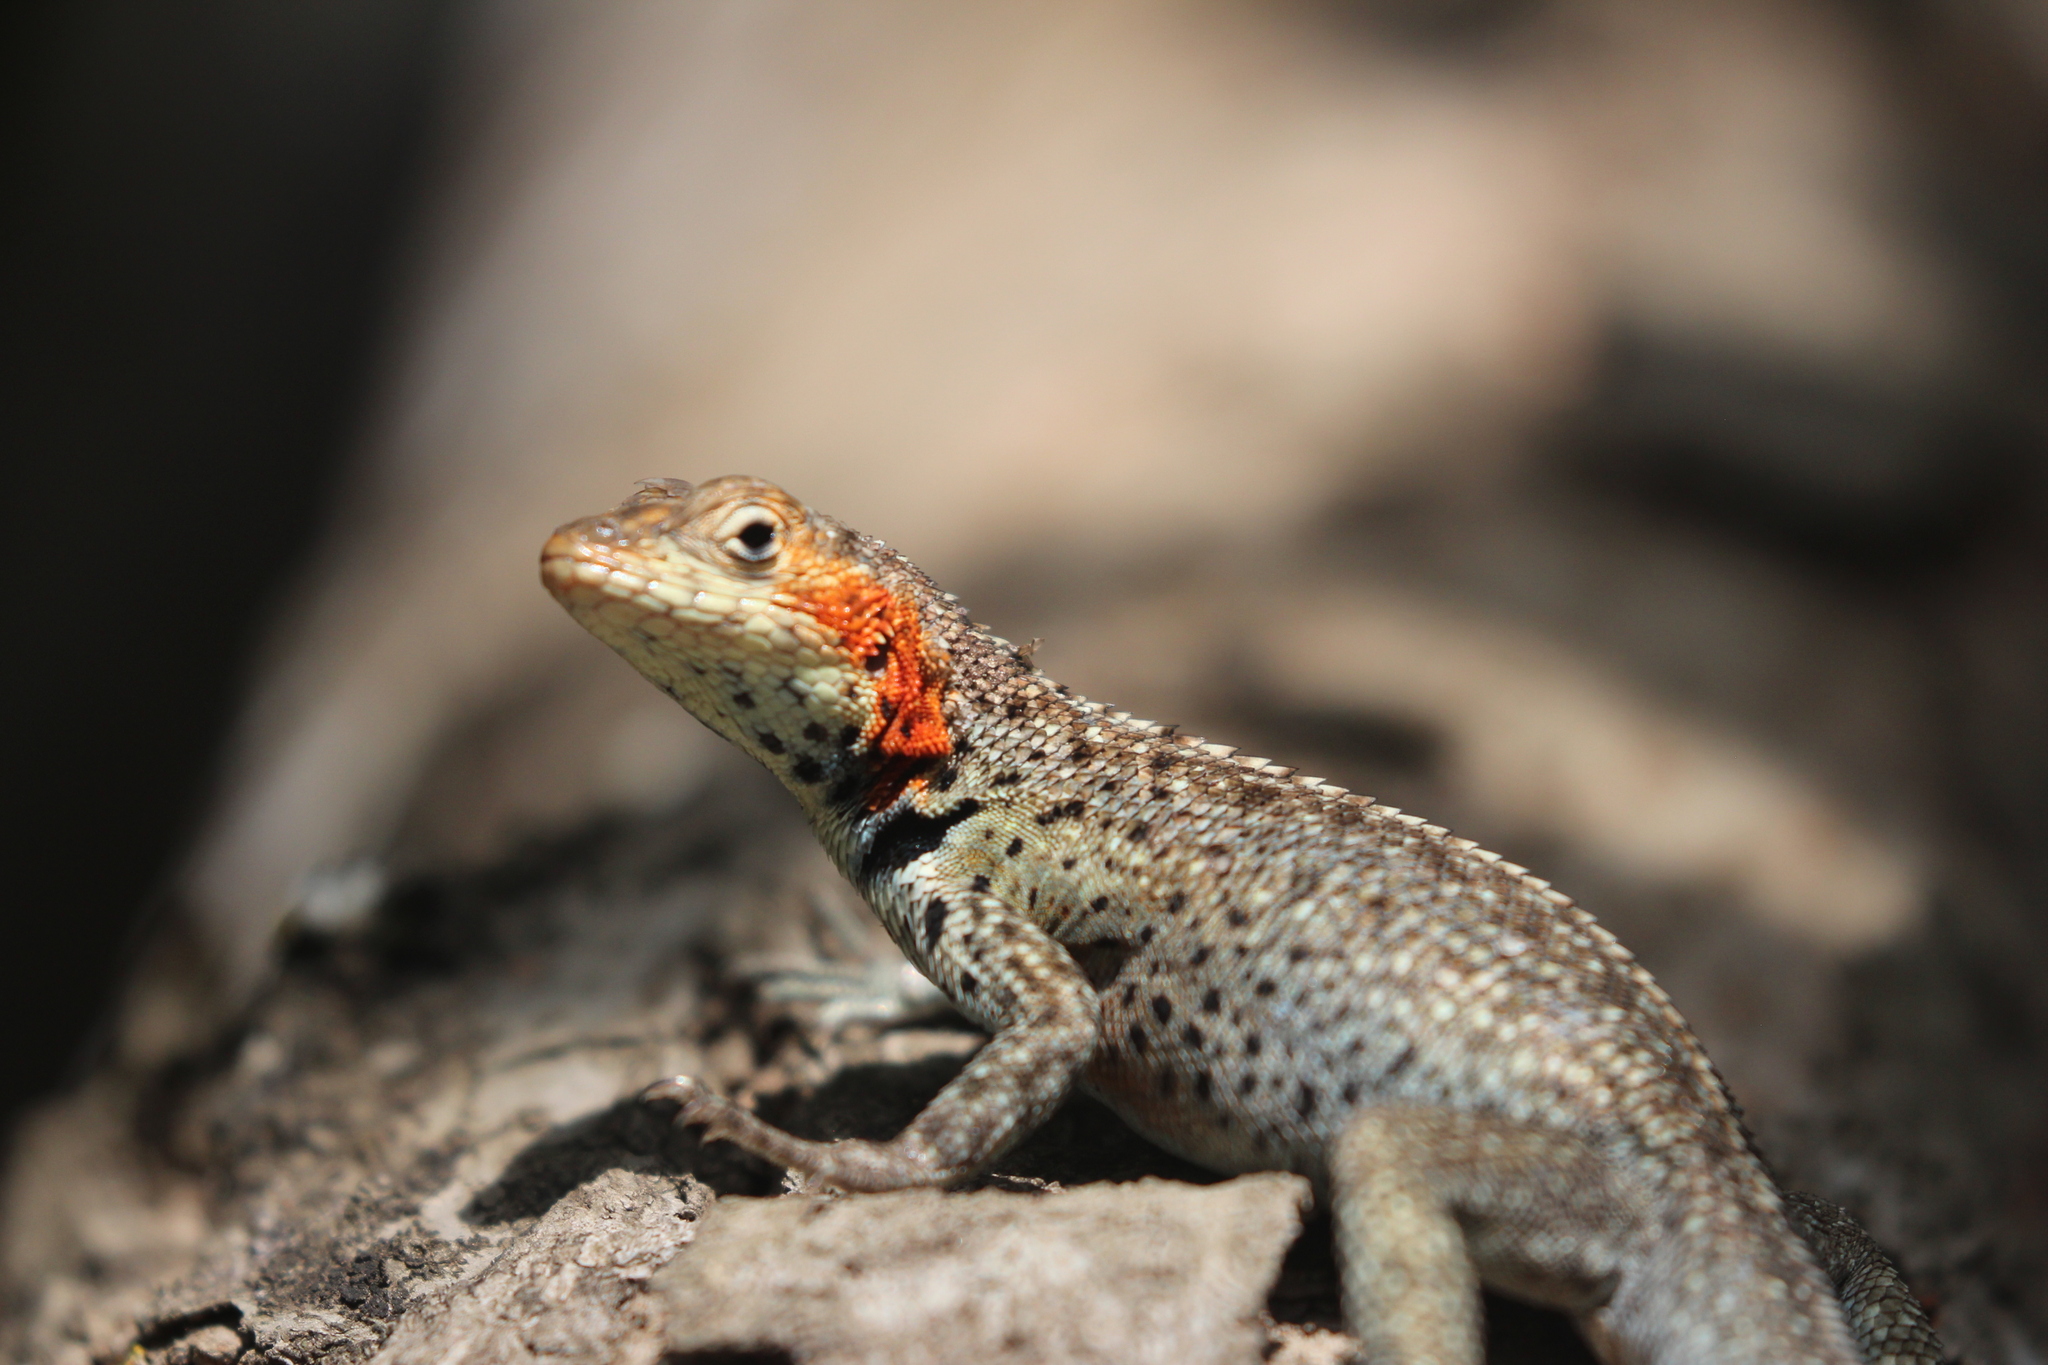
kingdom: Animalia
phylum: Chordata
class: Squamata
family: Tropiduridae
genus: Microlophus
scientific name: Microlophus albemarlensis
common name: Galapagos lava lizard
